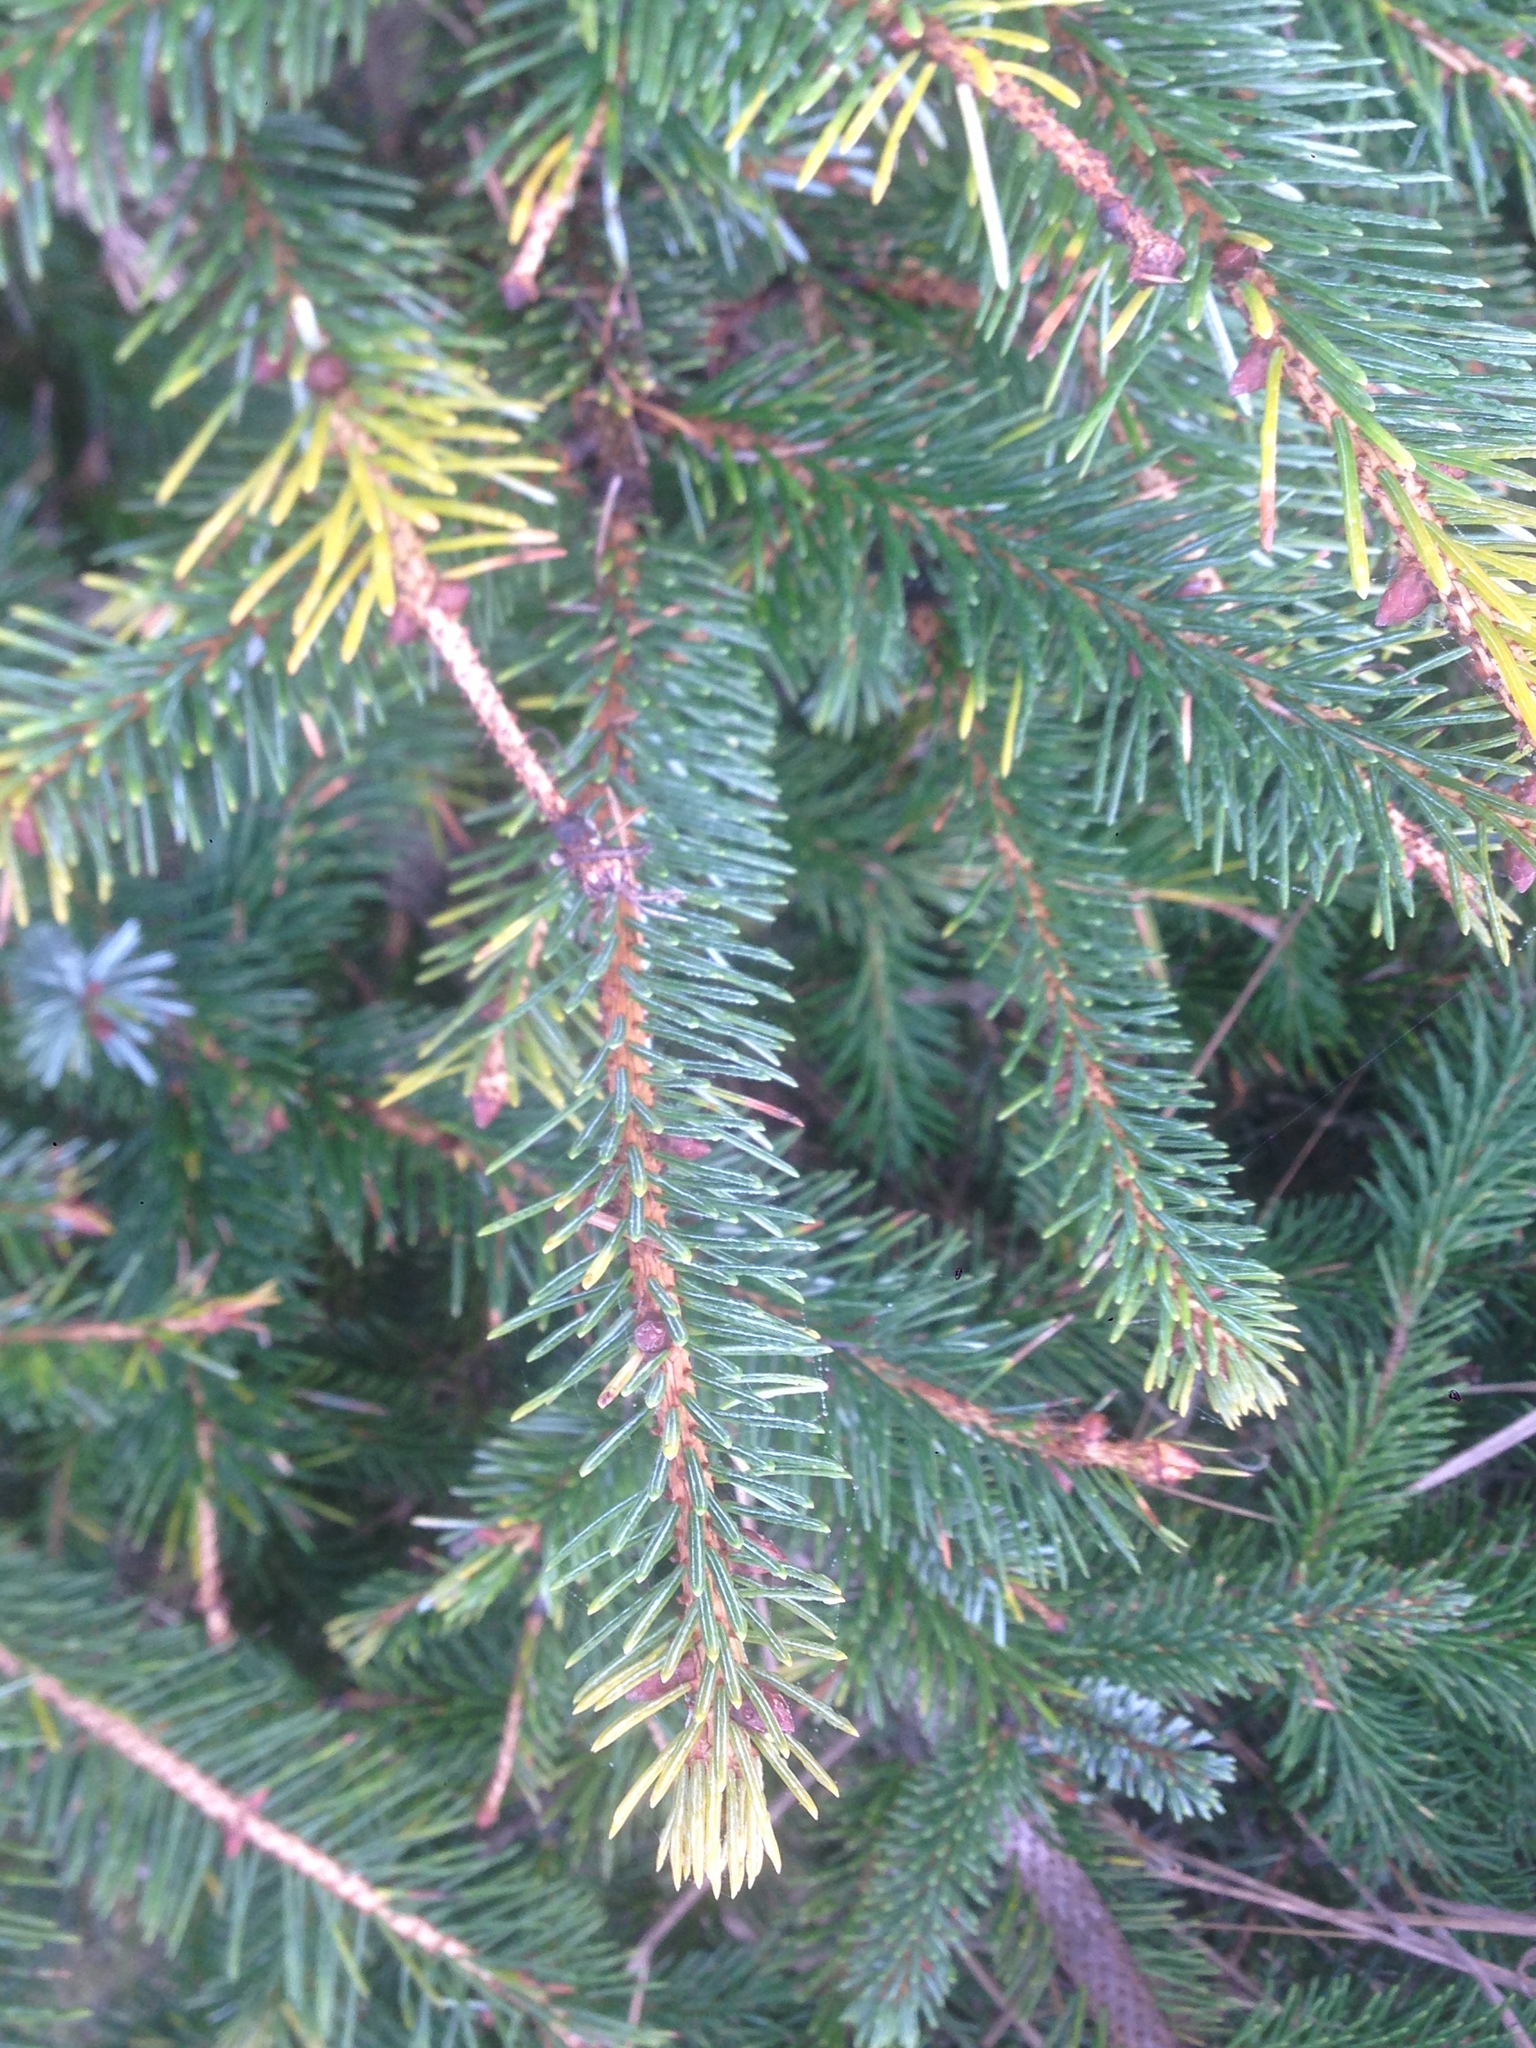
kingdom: Plantae
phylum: Tracheophyta
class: Pinopsida
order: Pinales
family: Pinaceae
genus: Picea
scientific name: Picea sitchensis
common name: Sitka spruce
